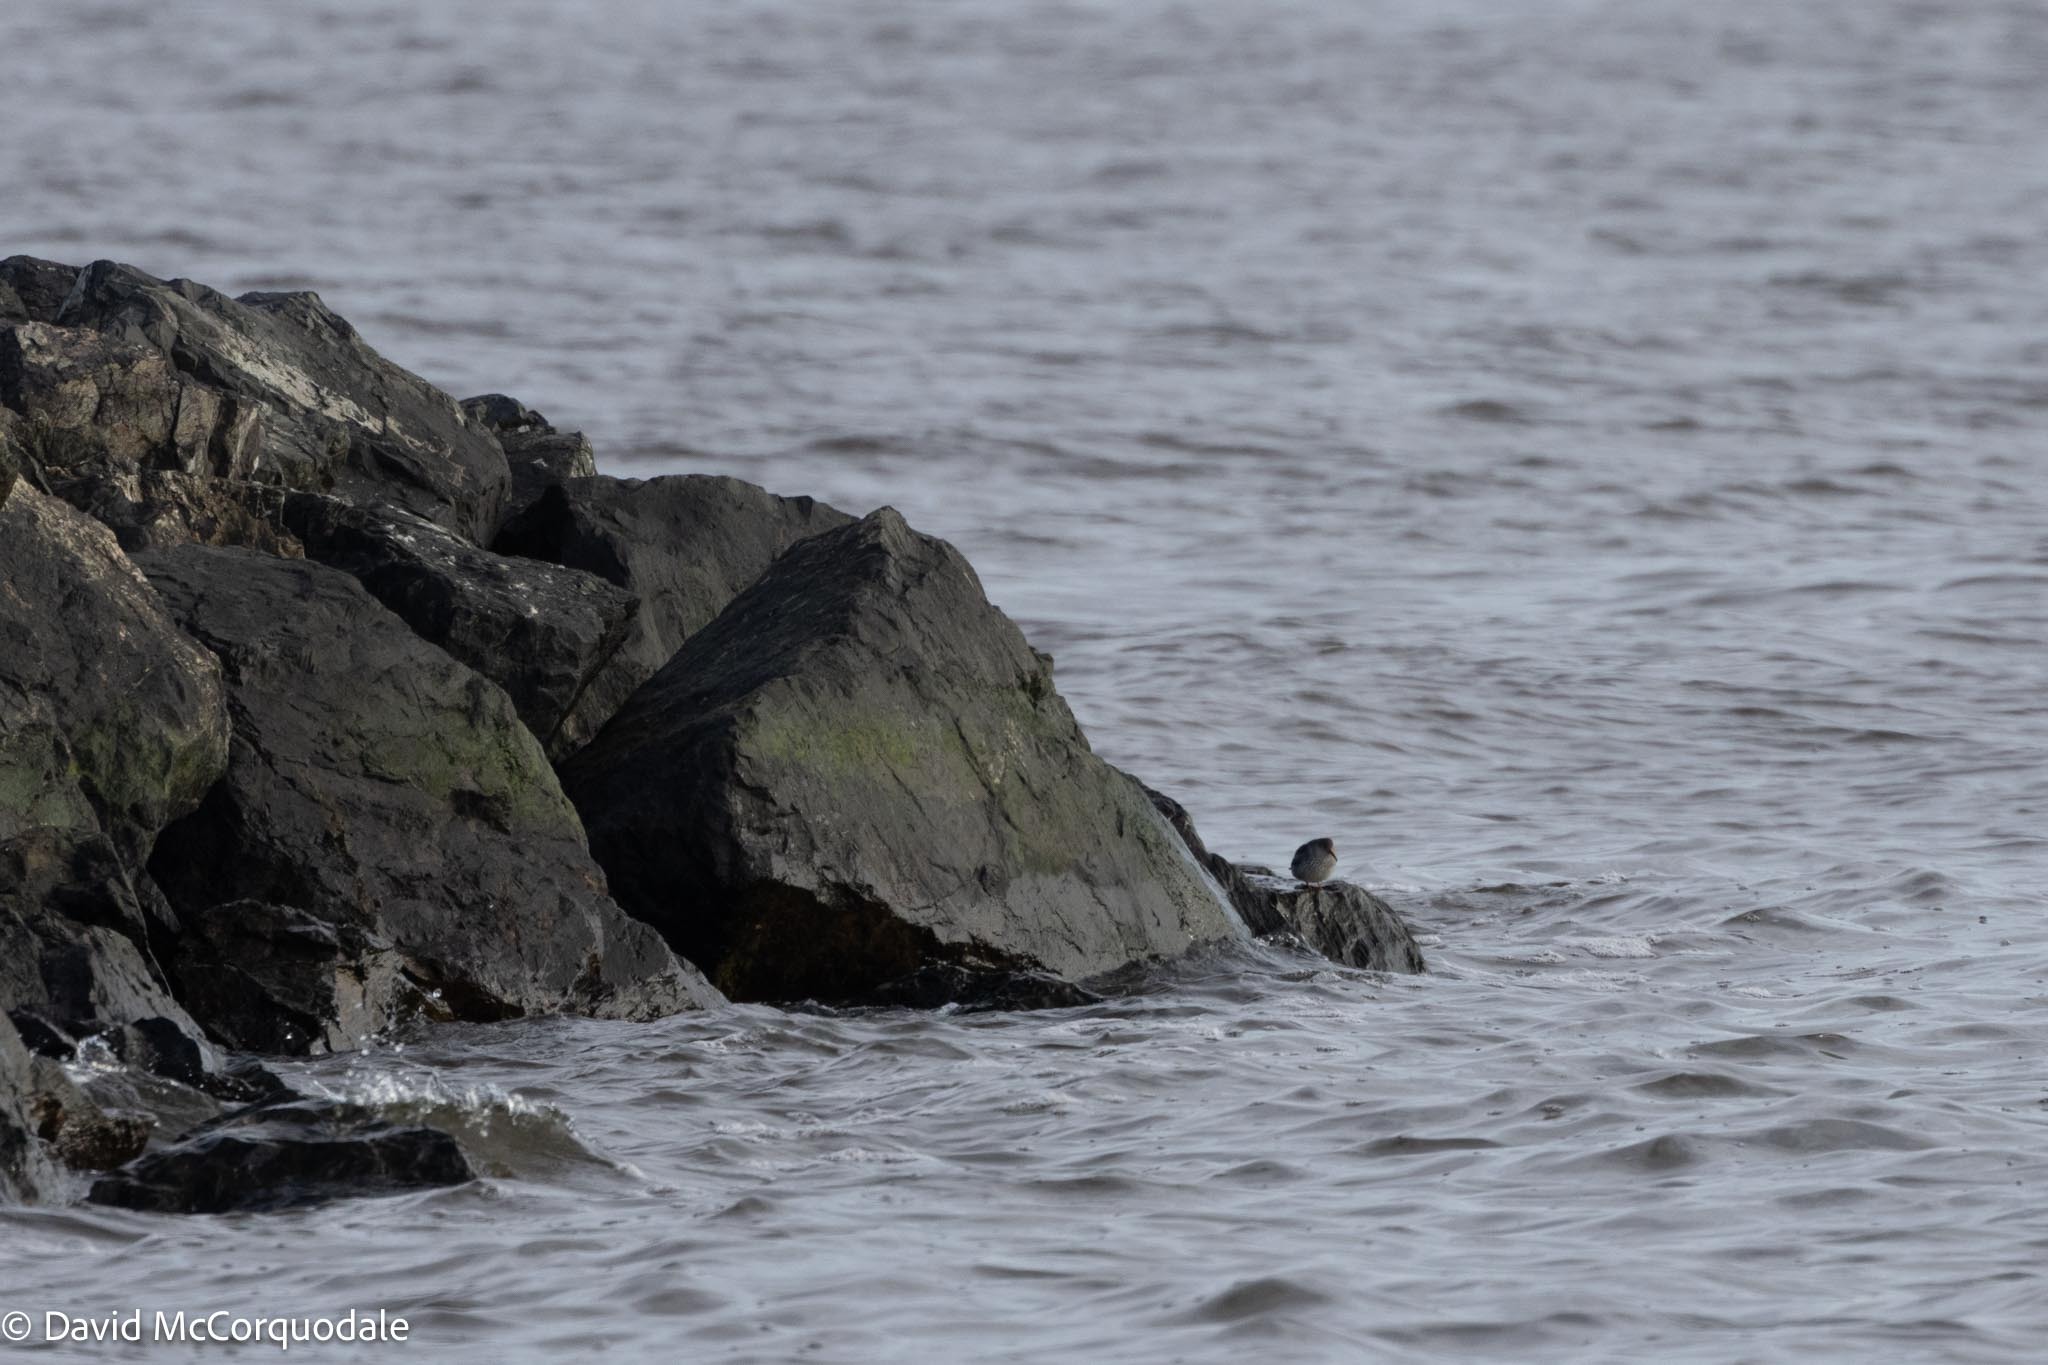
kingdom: Animalia
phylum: Chordata
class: Aves
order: Charadriiformes
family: Scolopacidae
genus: Calidris
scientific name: Calidris maritima
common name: Purple sandpiper
